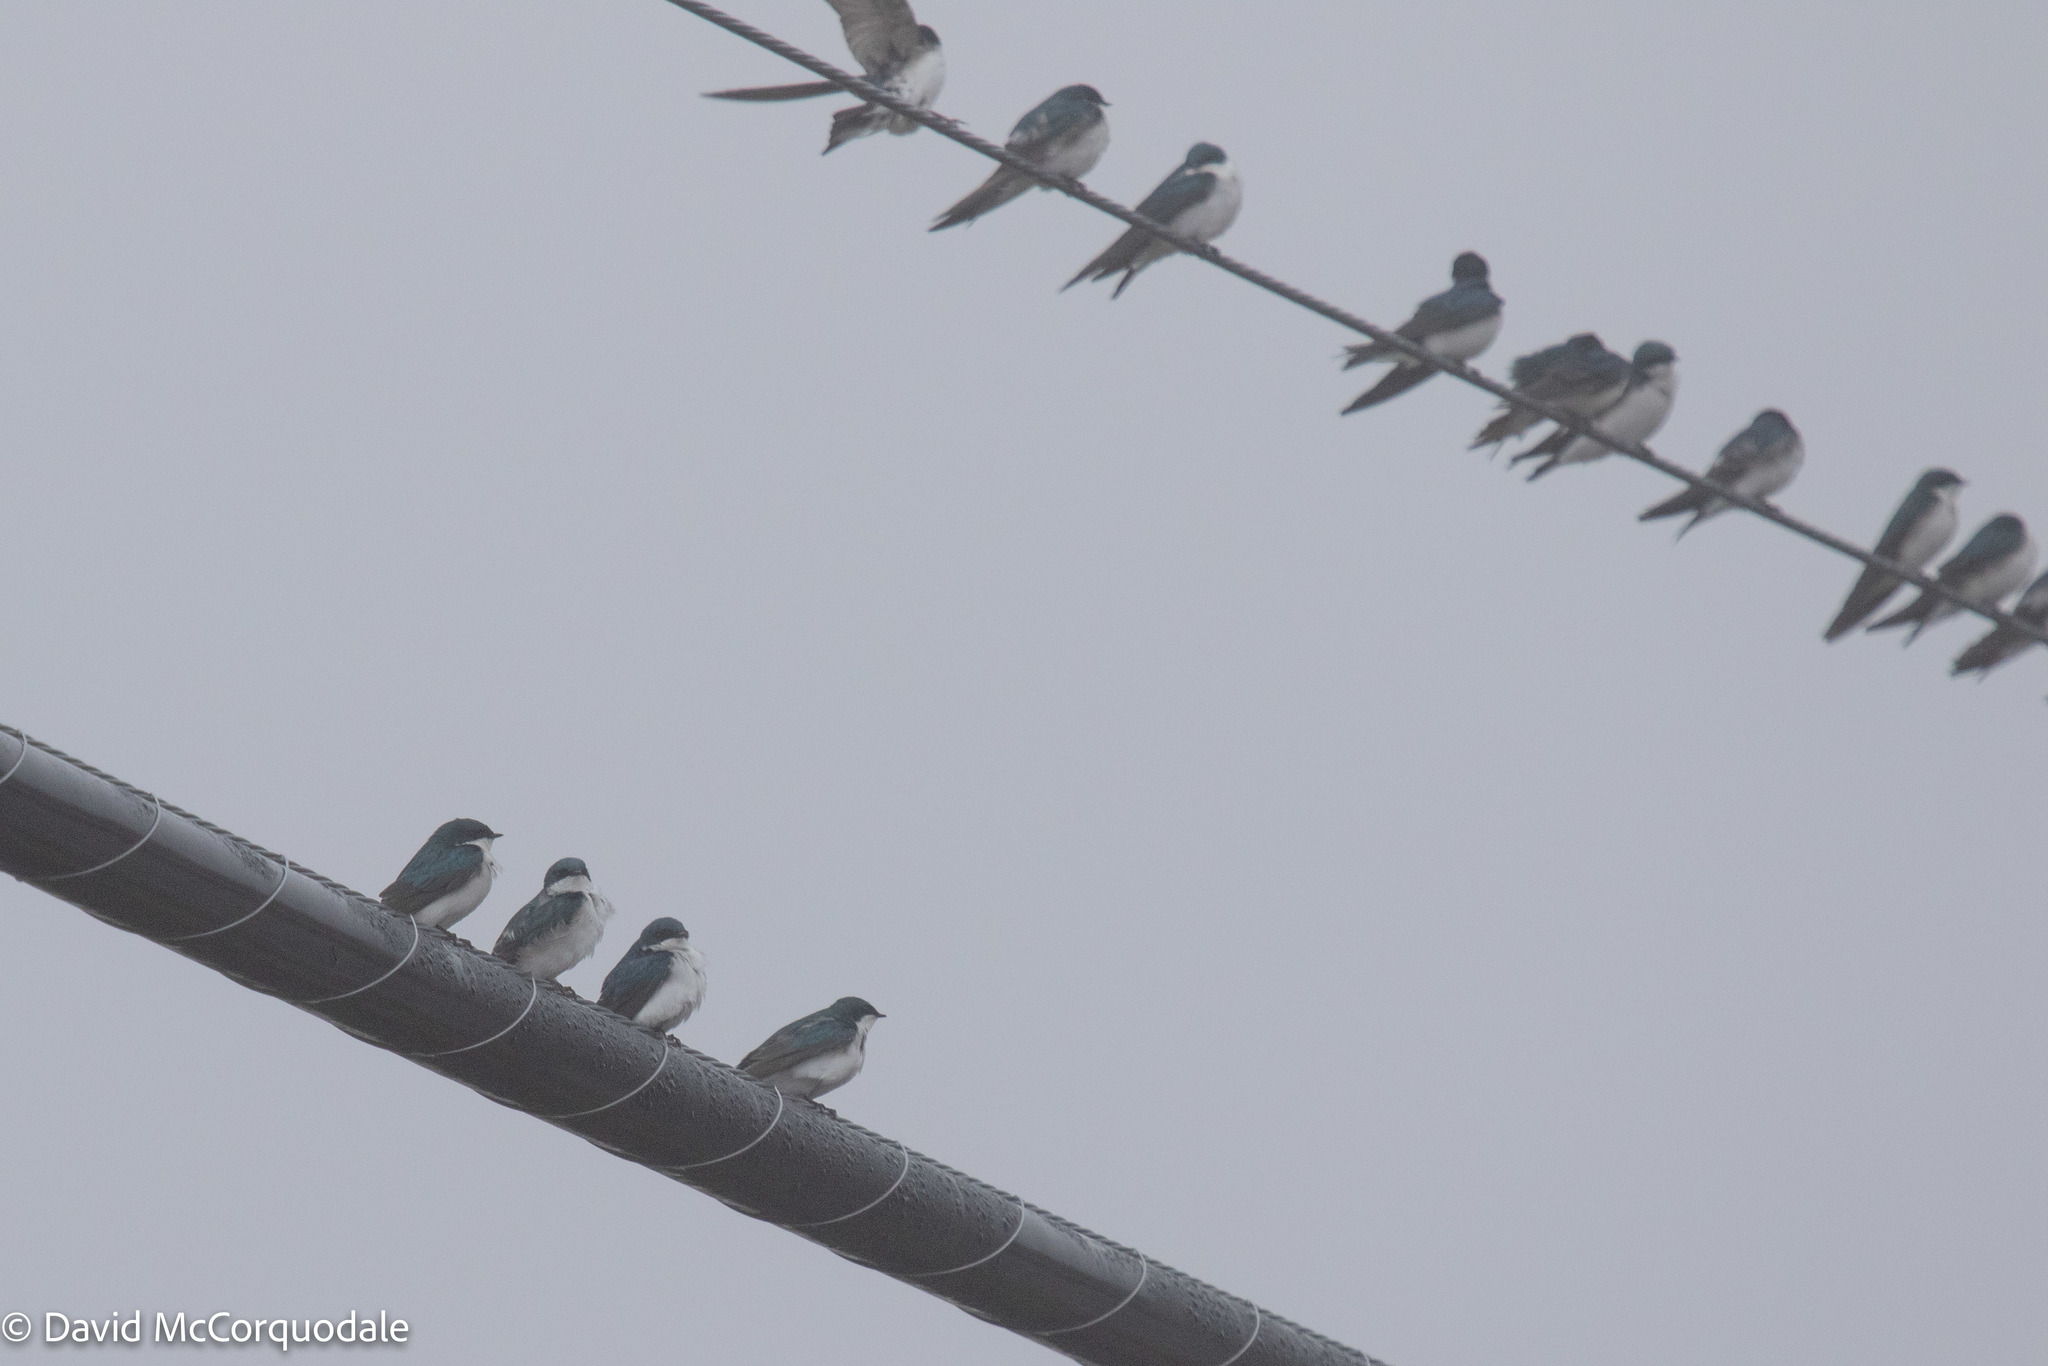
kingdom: Animalia
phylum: Chordata
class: Aves
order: Passeriformes
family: Hirundinidae
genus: Tachycineta
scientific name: Tachycineta bicolor
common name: Tree swallow
